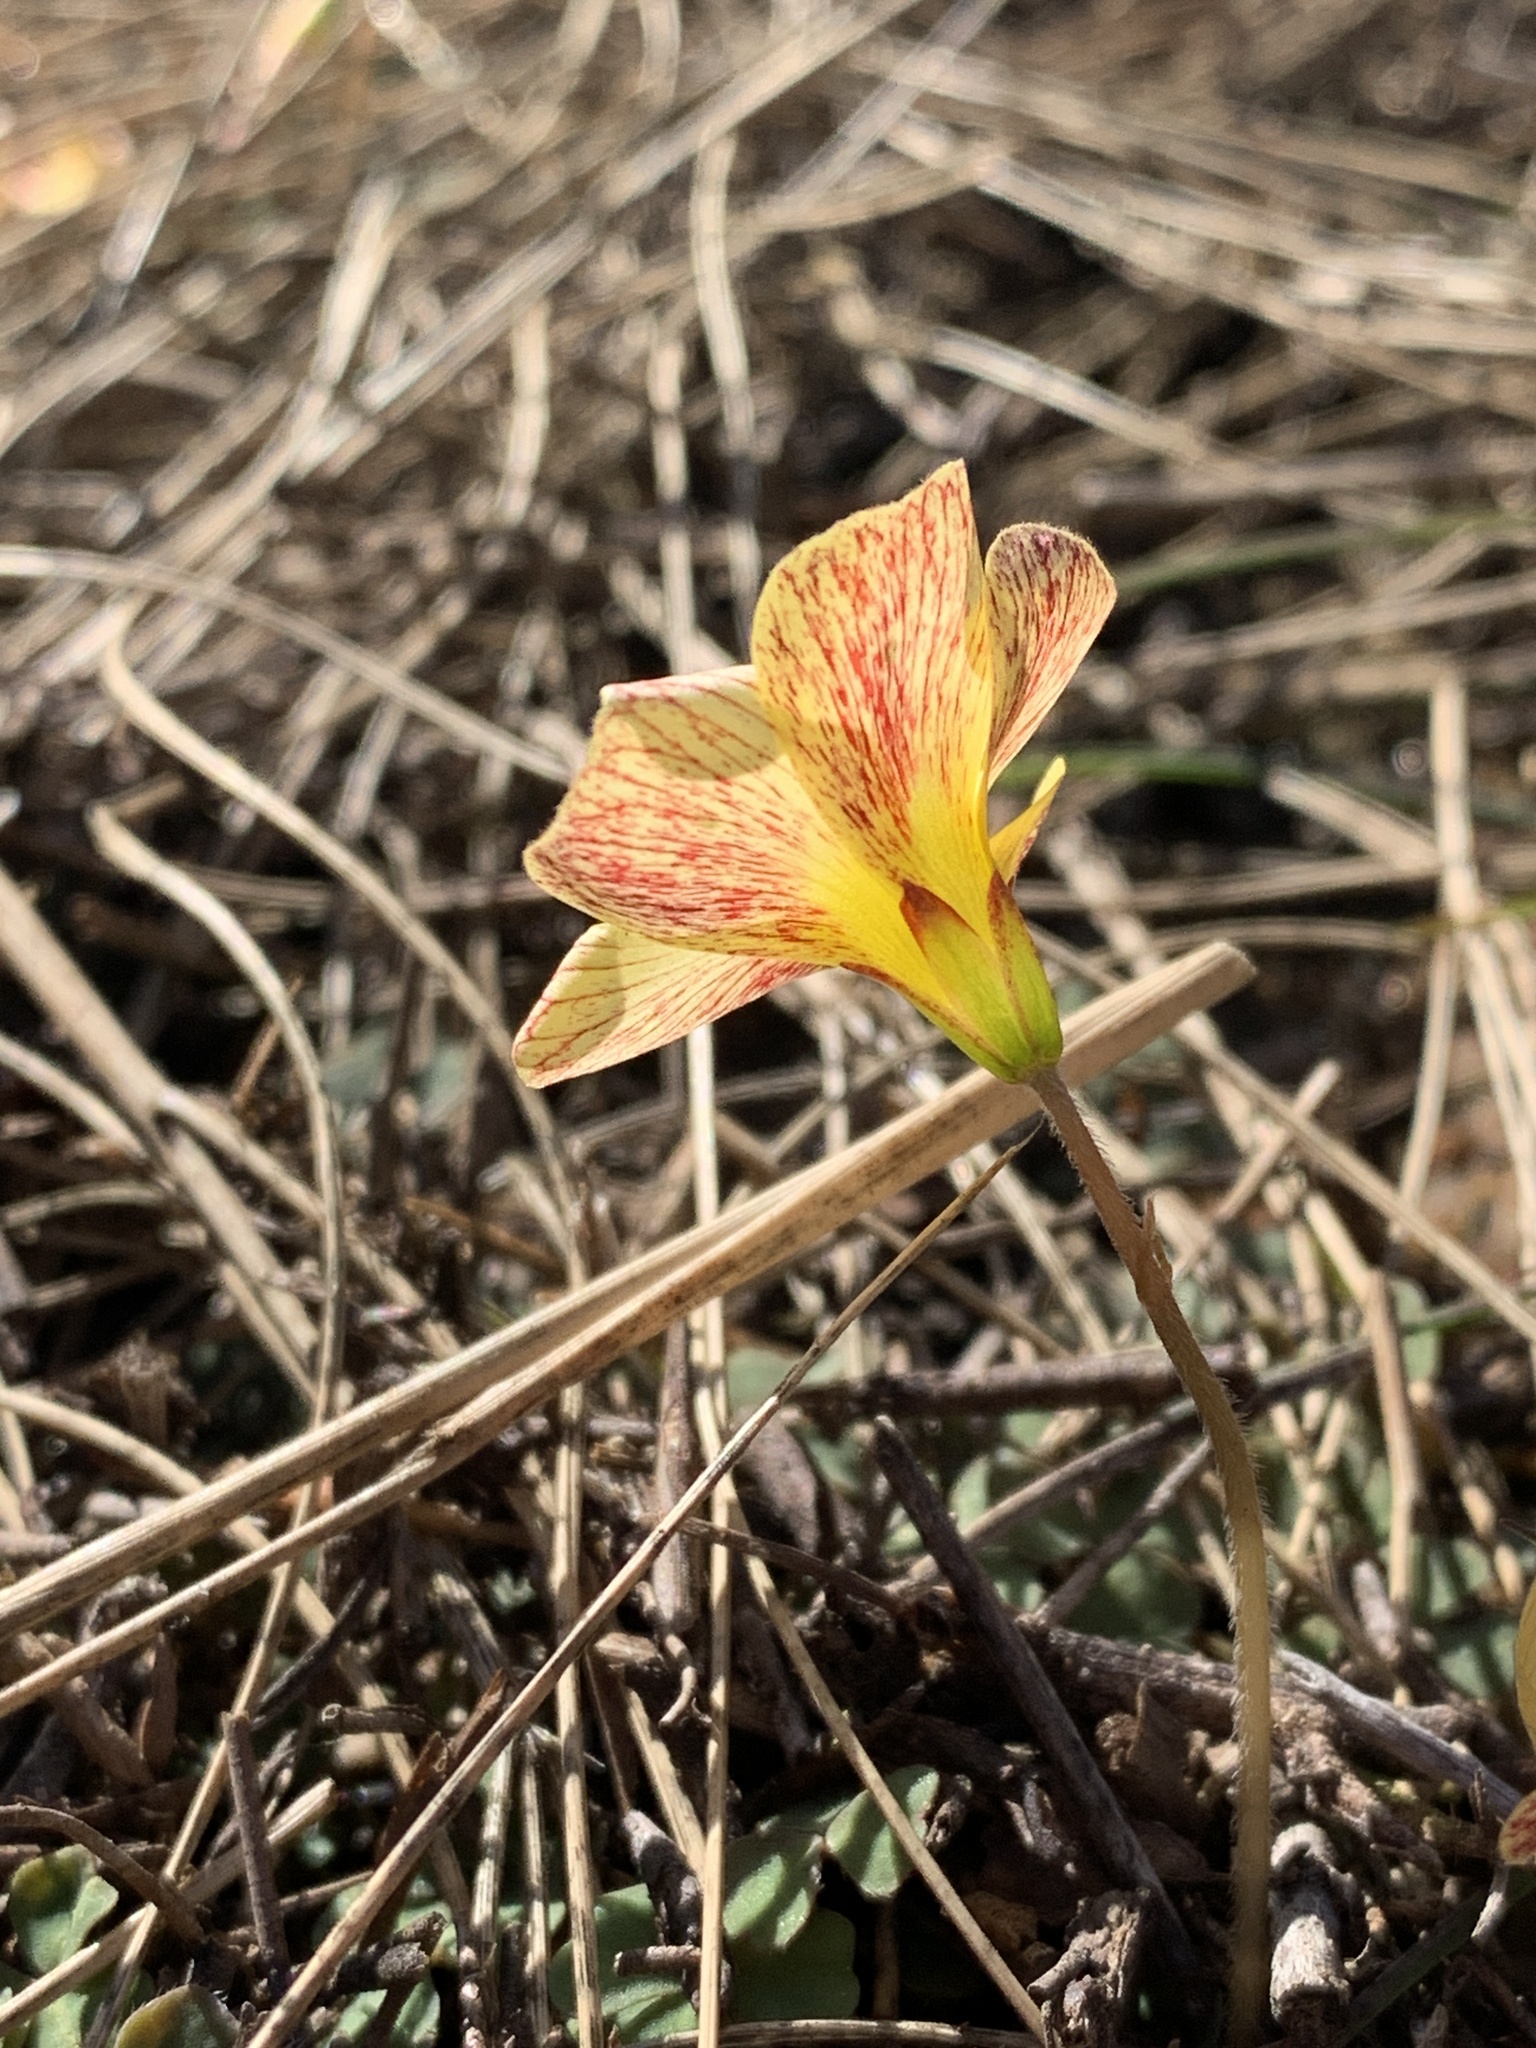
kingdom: Plantae
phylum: Tracheophyta
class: Magnoliopsida
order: Oxalidales
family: Oxalidaceae
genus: Oxalis
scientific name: Oxalis obtusa
